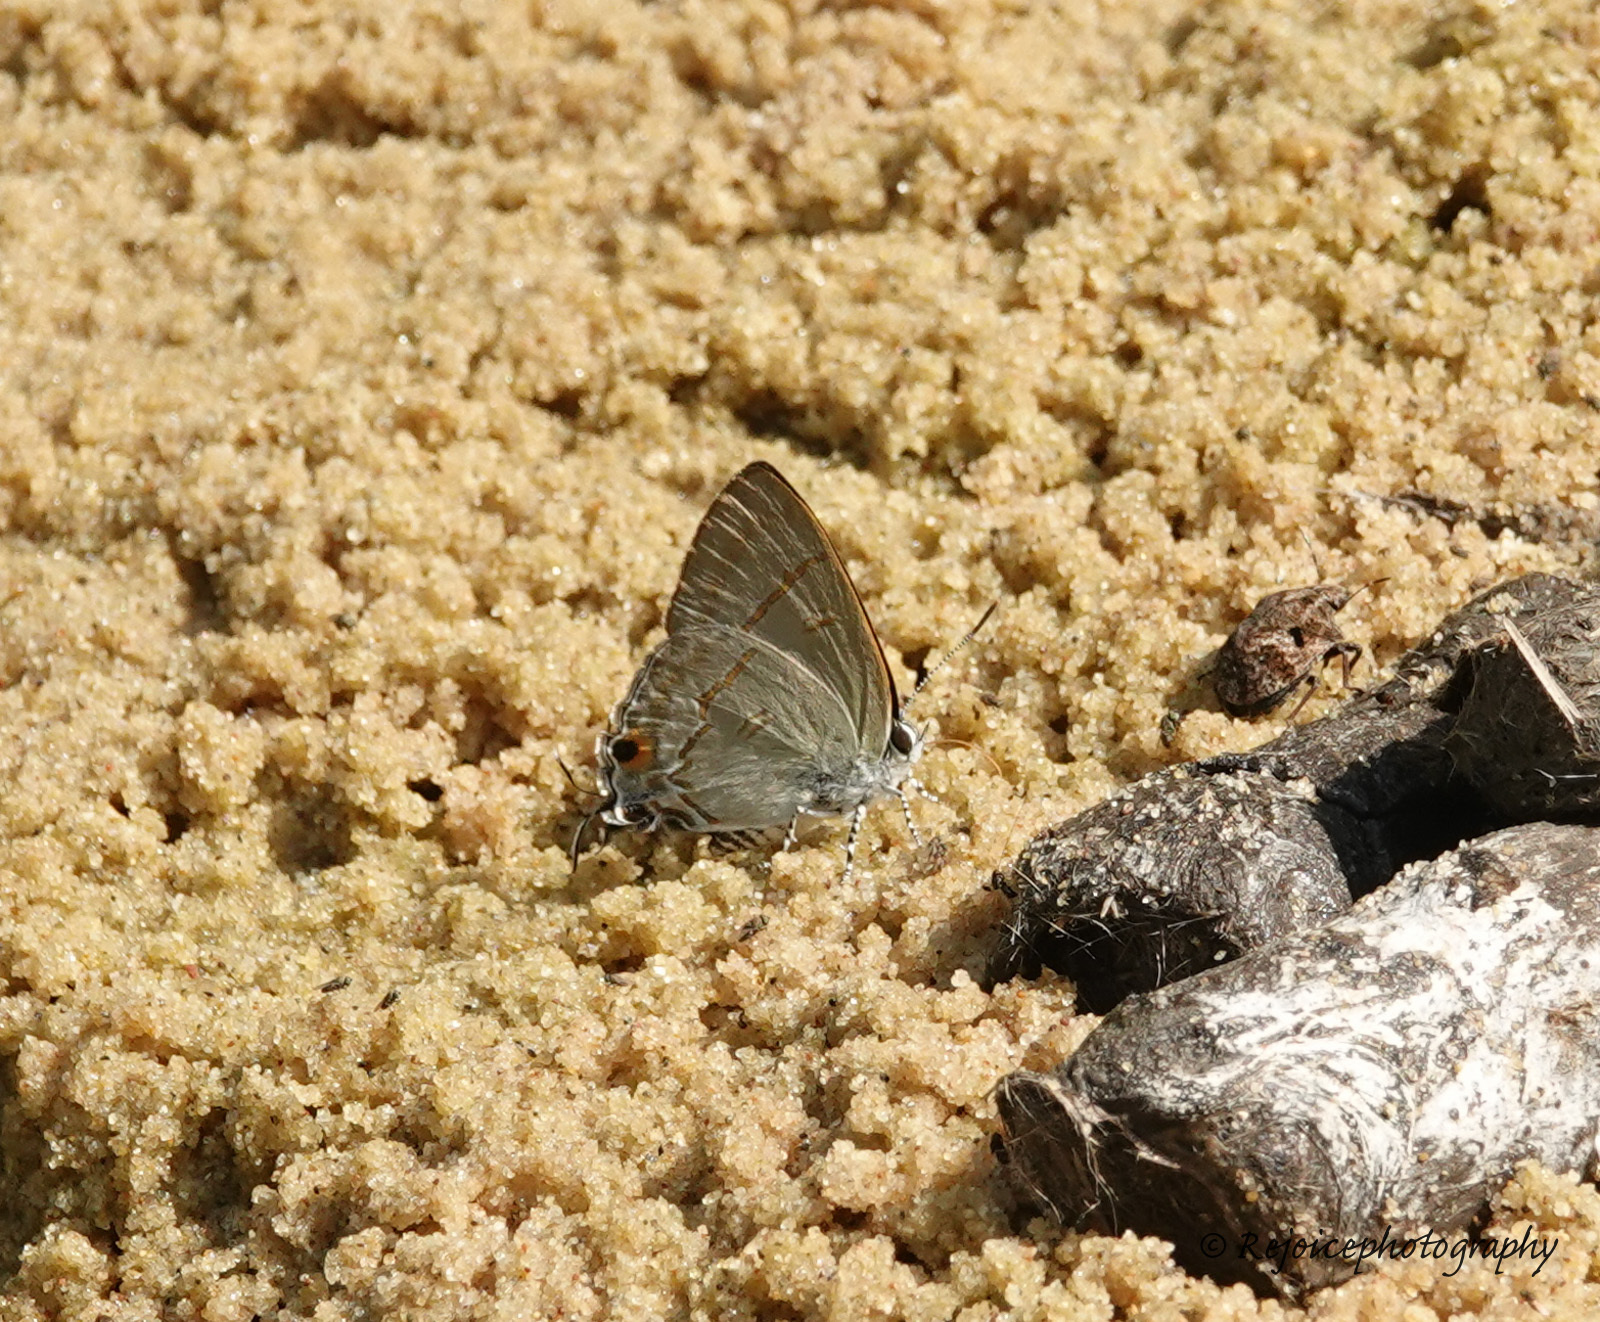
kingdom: Animalia
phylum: Arthropoda
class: Insecta
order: Lepidoptera
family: Lycaenidae
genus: Hypolycaena
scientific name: Hypolycaena erylus
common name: Common tit
